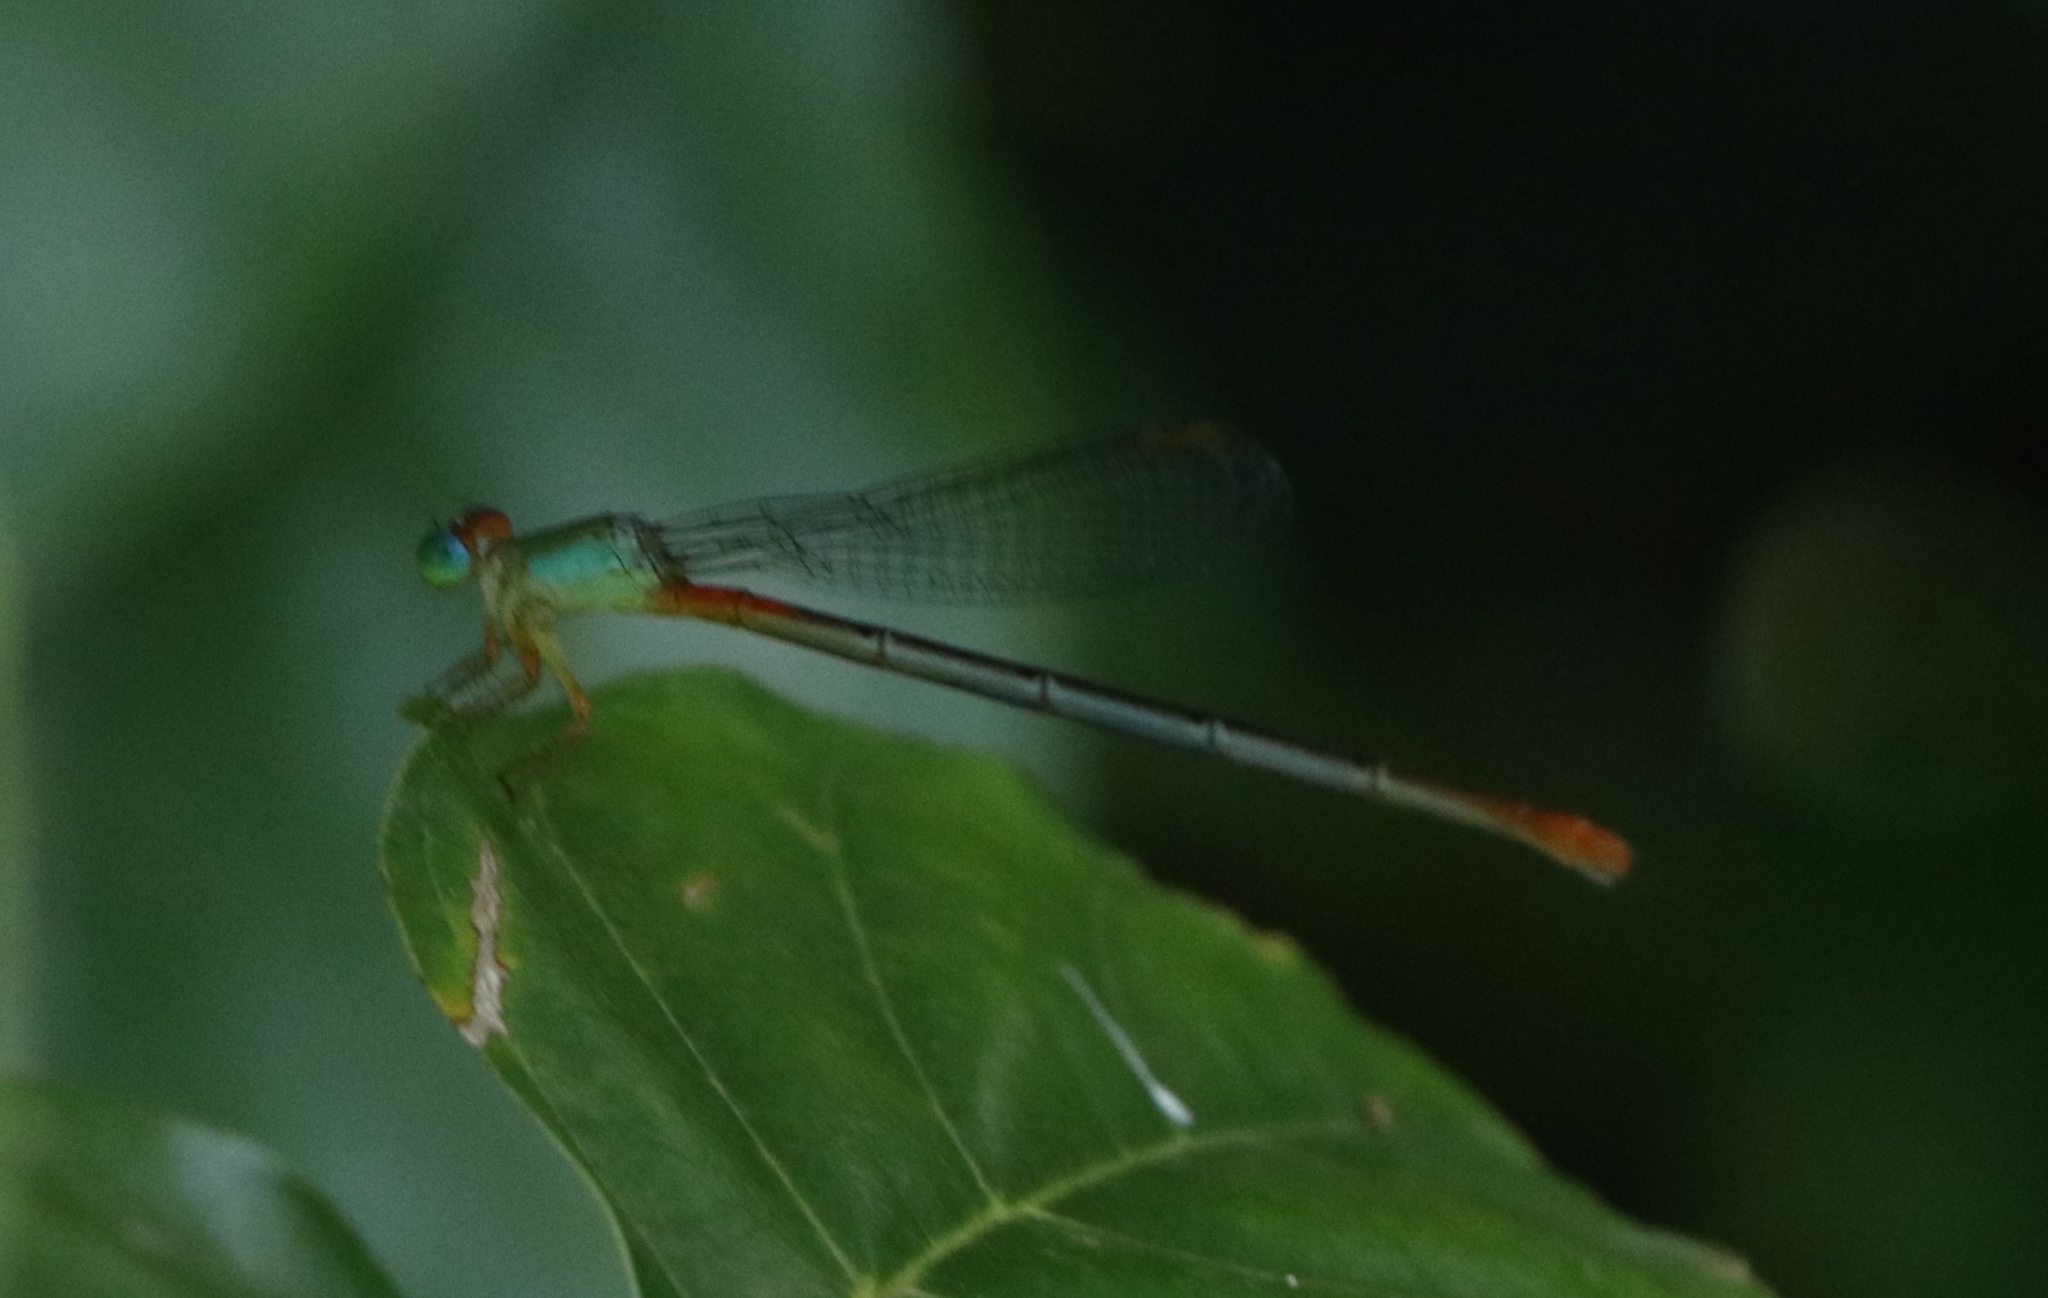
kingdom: Animalia
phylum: Arthropoda
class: Insecta
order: Odonata
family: Coenagrionidae
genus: Ceriagrion
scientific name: Ceriagrion cerinorubellum
